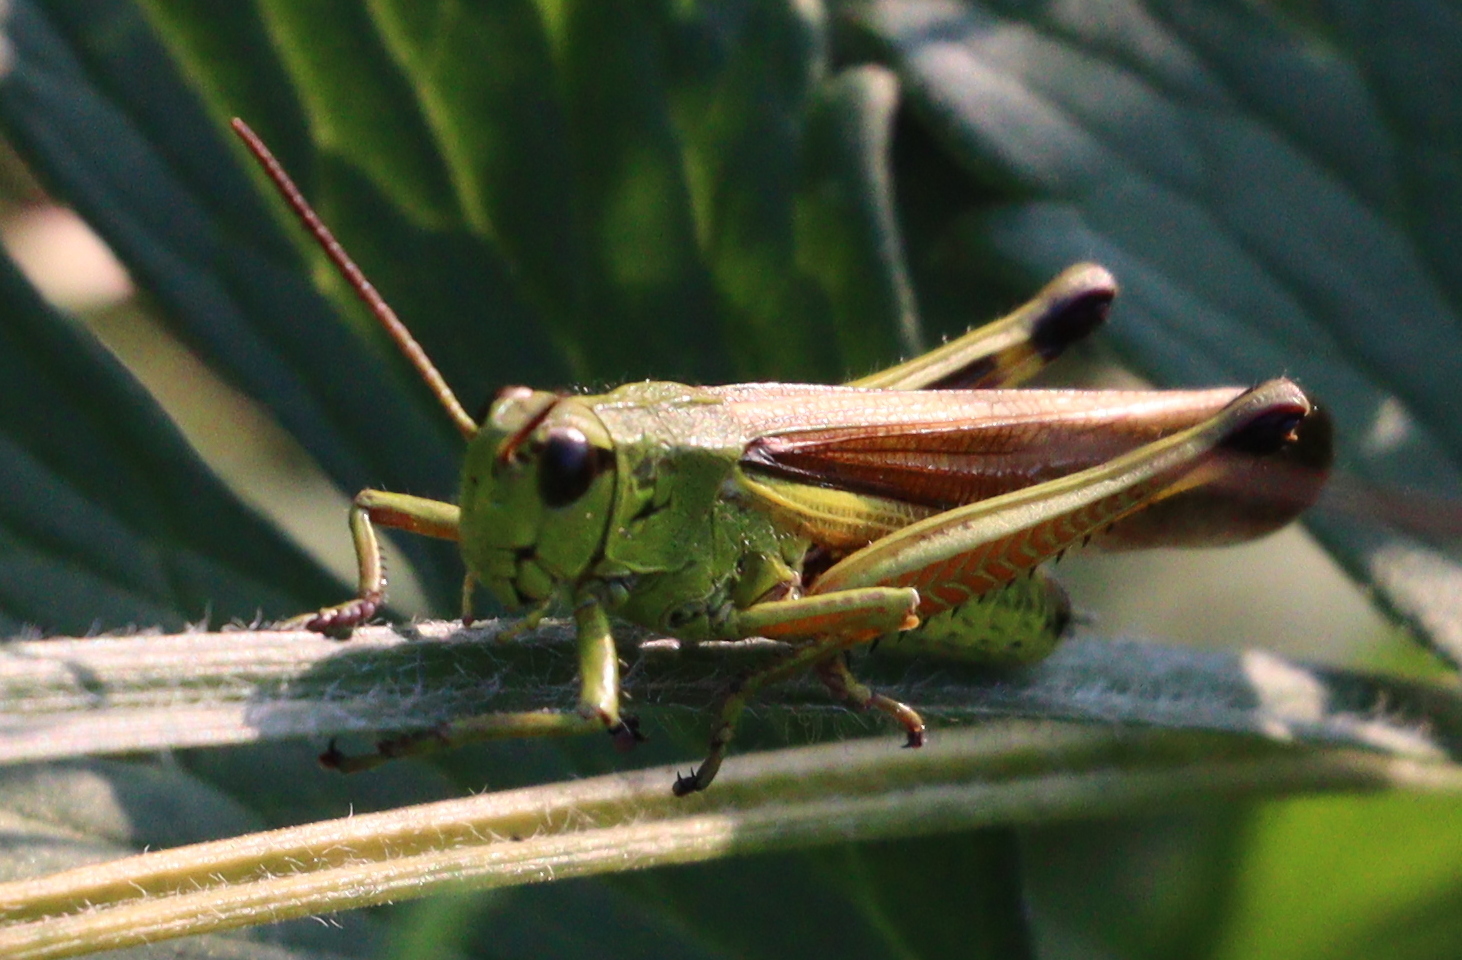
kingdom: Animalia
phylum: Arthropoda
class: Insecta
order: Orthoptera
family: Acrididae
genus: Stethophyma
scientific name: Stethophyma grossum
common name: Large marsh grasshopper
